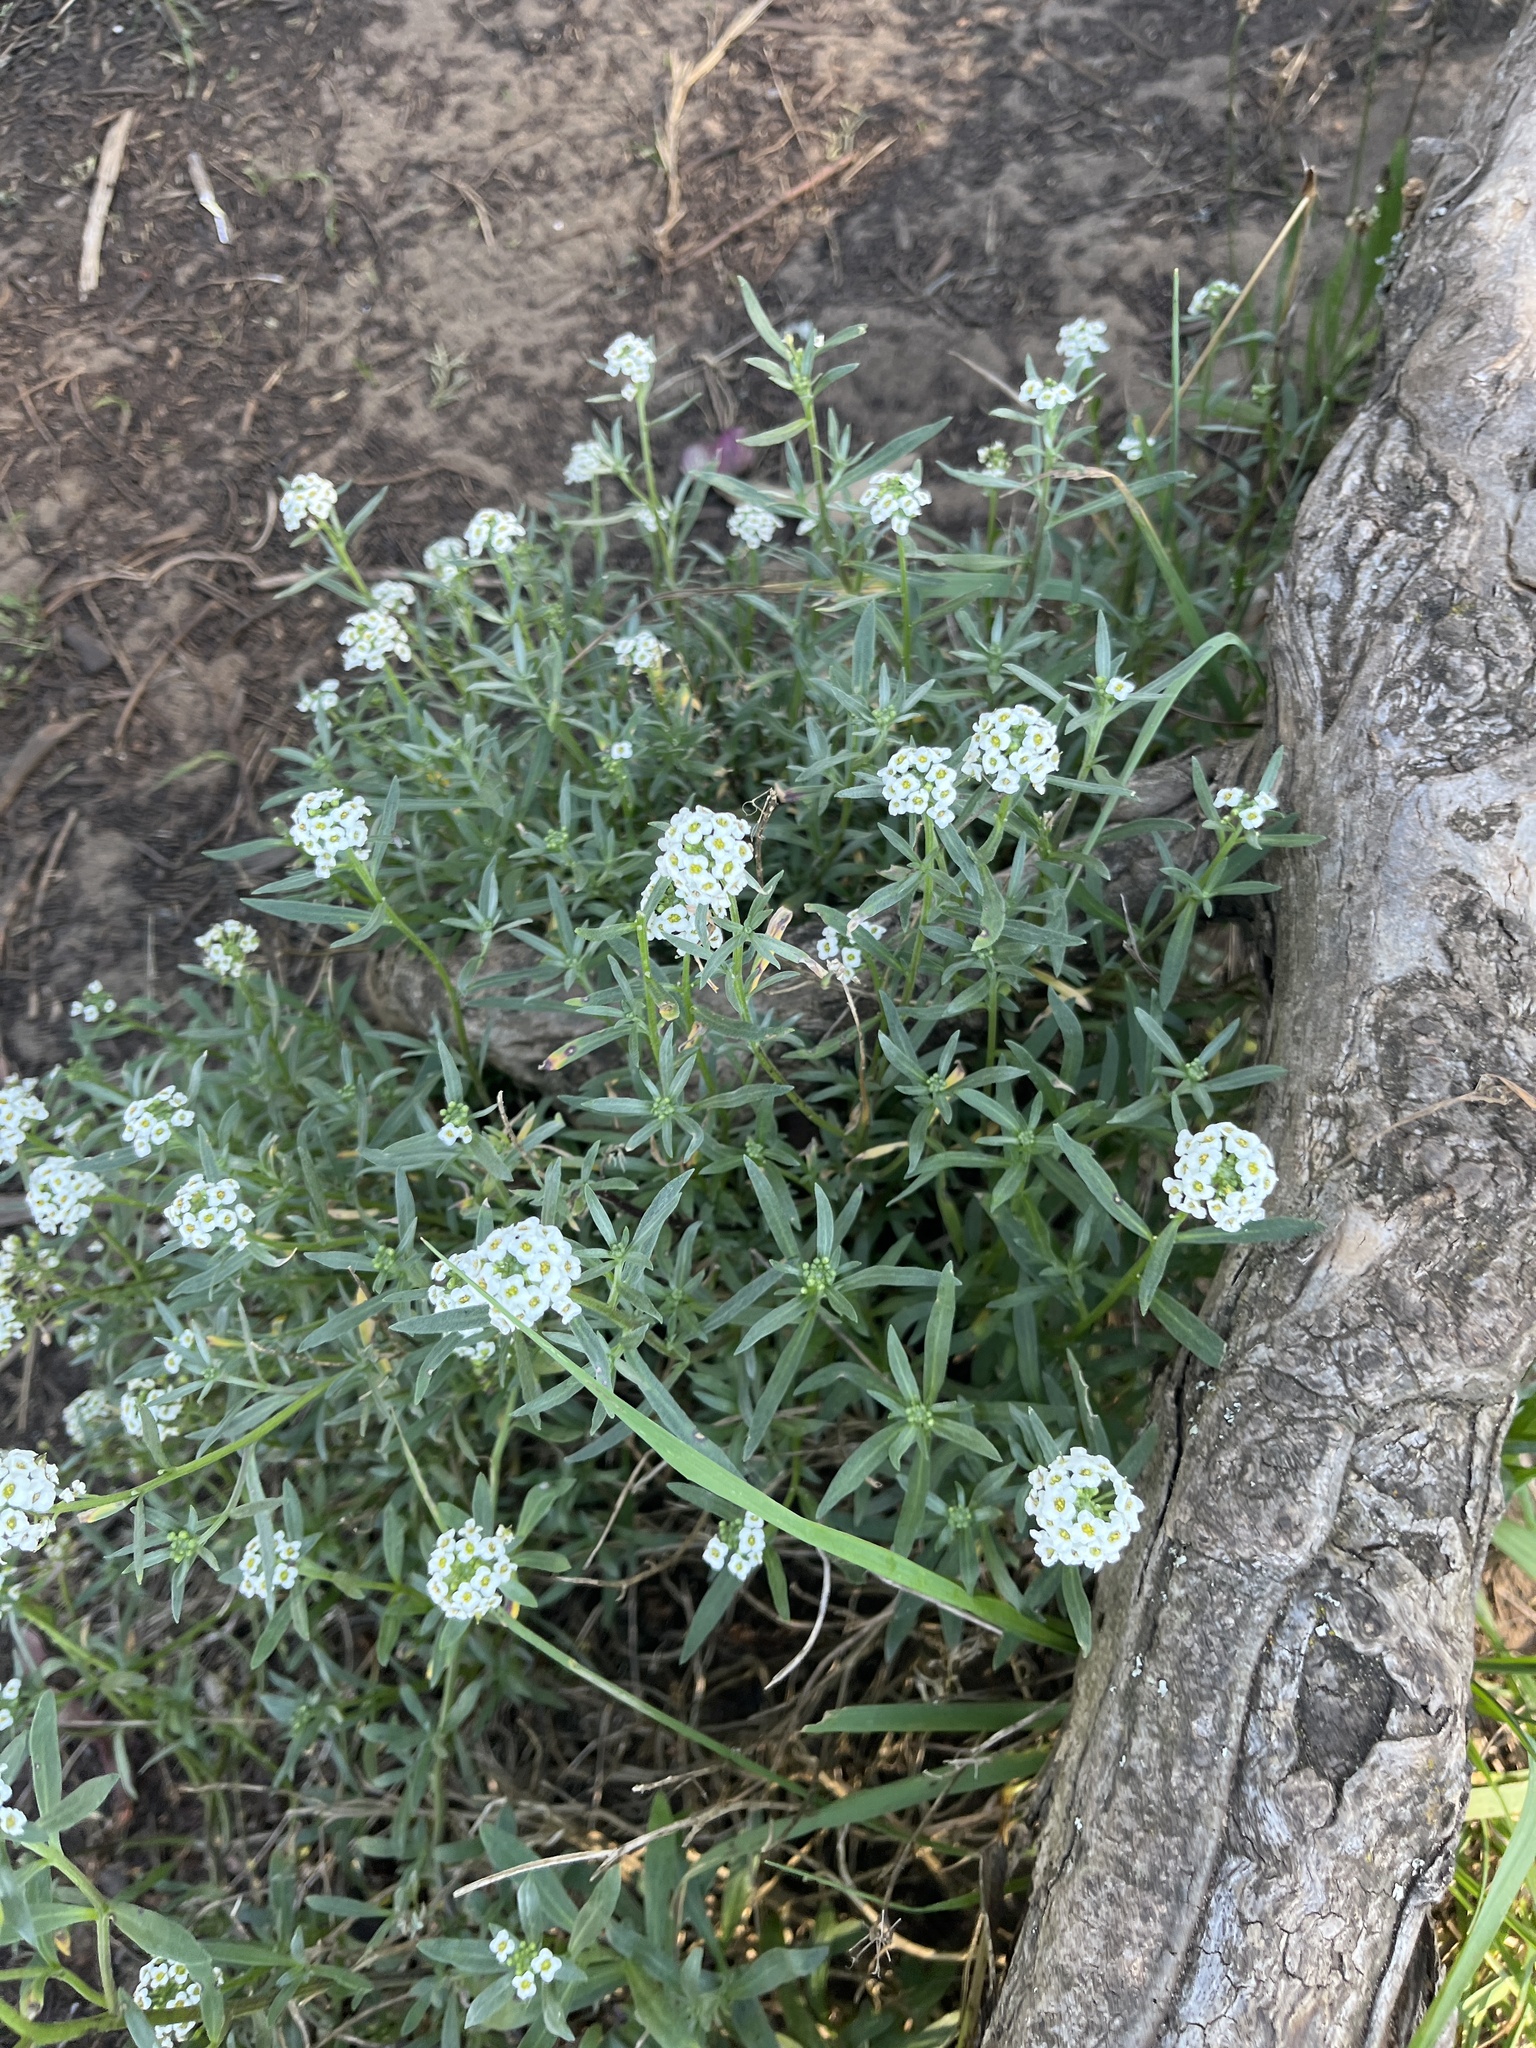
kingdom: Plantae
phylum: Tracheophyta
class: Magnoliopsida
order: Brassicales
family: Brassicaceae
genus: Lobularia
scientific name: Lobularia maritima
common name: Sweet alison
